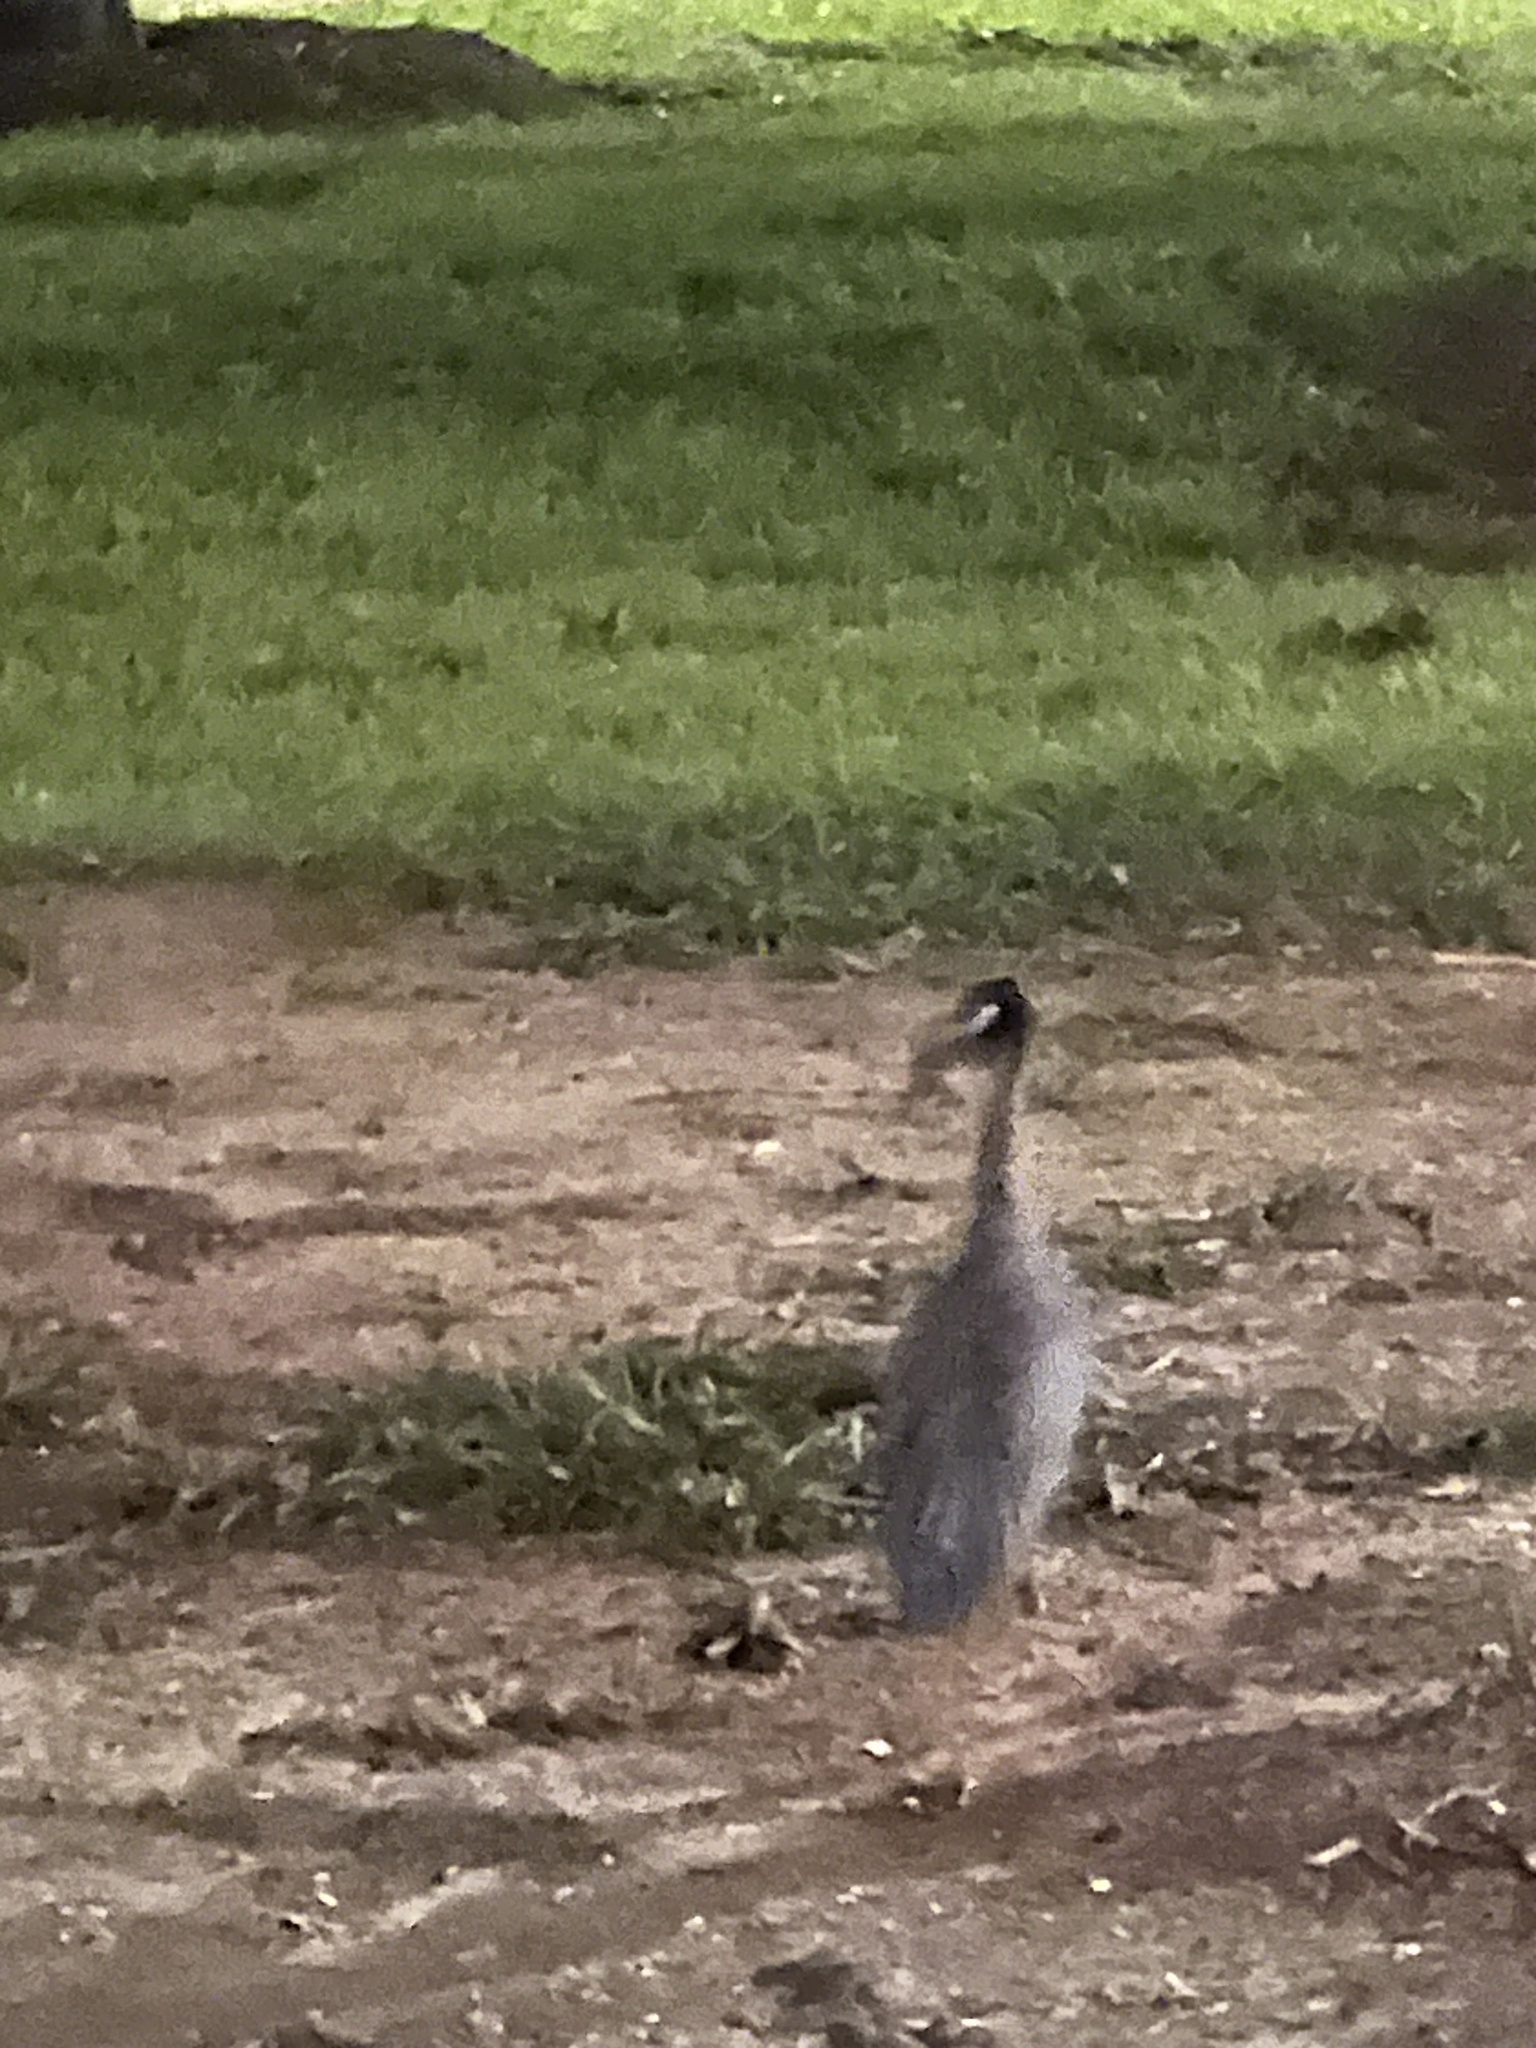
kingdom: Animalia
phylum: Chordata
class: Aves
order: Pelecaniformes
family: Ardeidae
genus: Nyctanassa
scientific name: Nyctanassa violacea
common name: Yellow-crowned night heron
